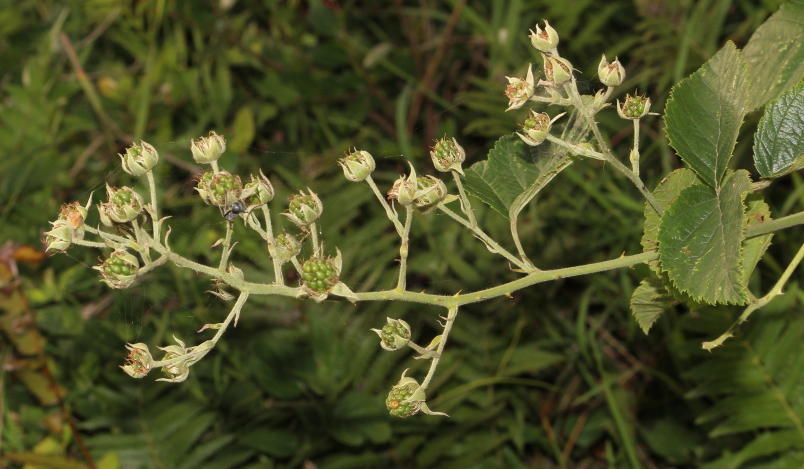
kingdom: Plantae
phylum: Tracheophyta
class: Magnoliopsida
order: Rosales
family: Rosaceae
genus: Rubus
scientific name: Rubus rigidus
